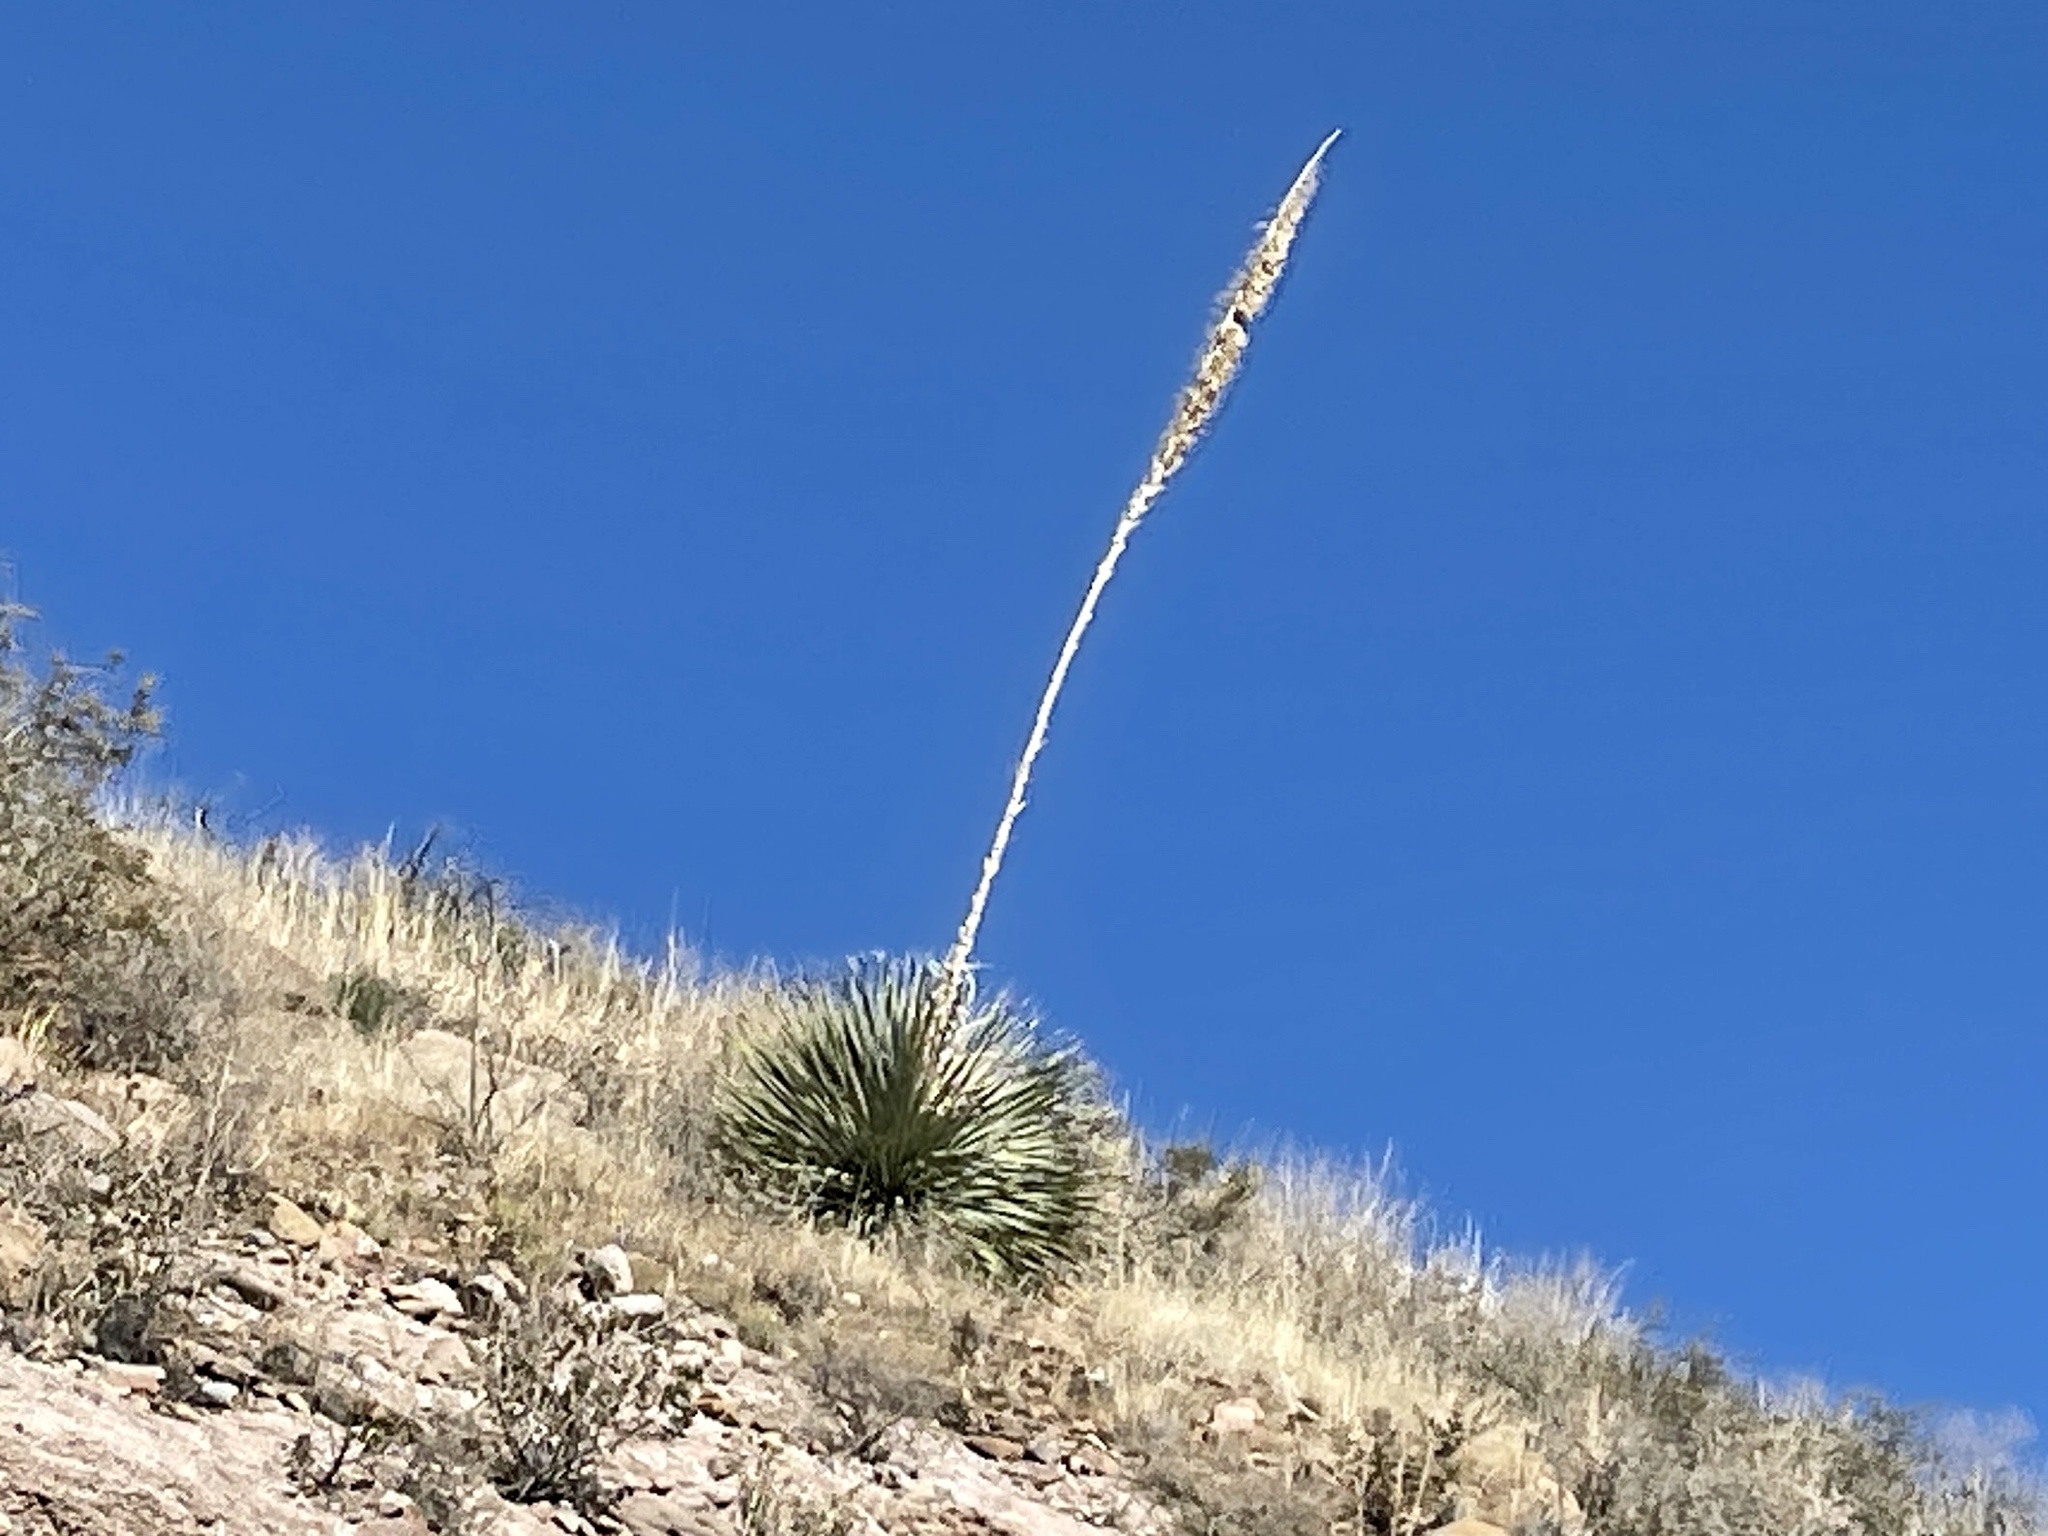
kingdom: Plantae
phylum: Tracheophyta
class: Liliopsida
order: Asparagales
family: Asparagaceae
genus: Dasylirion
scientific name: Dasylirion wheeleri
